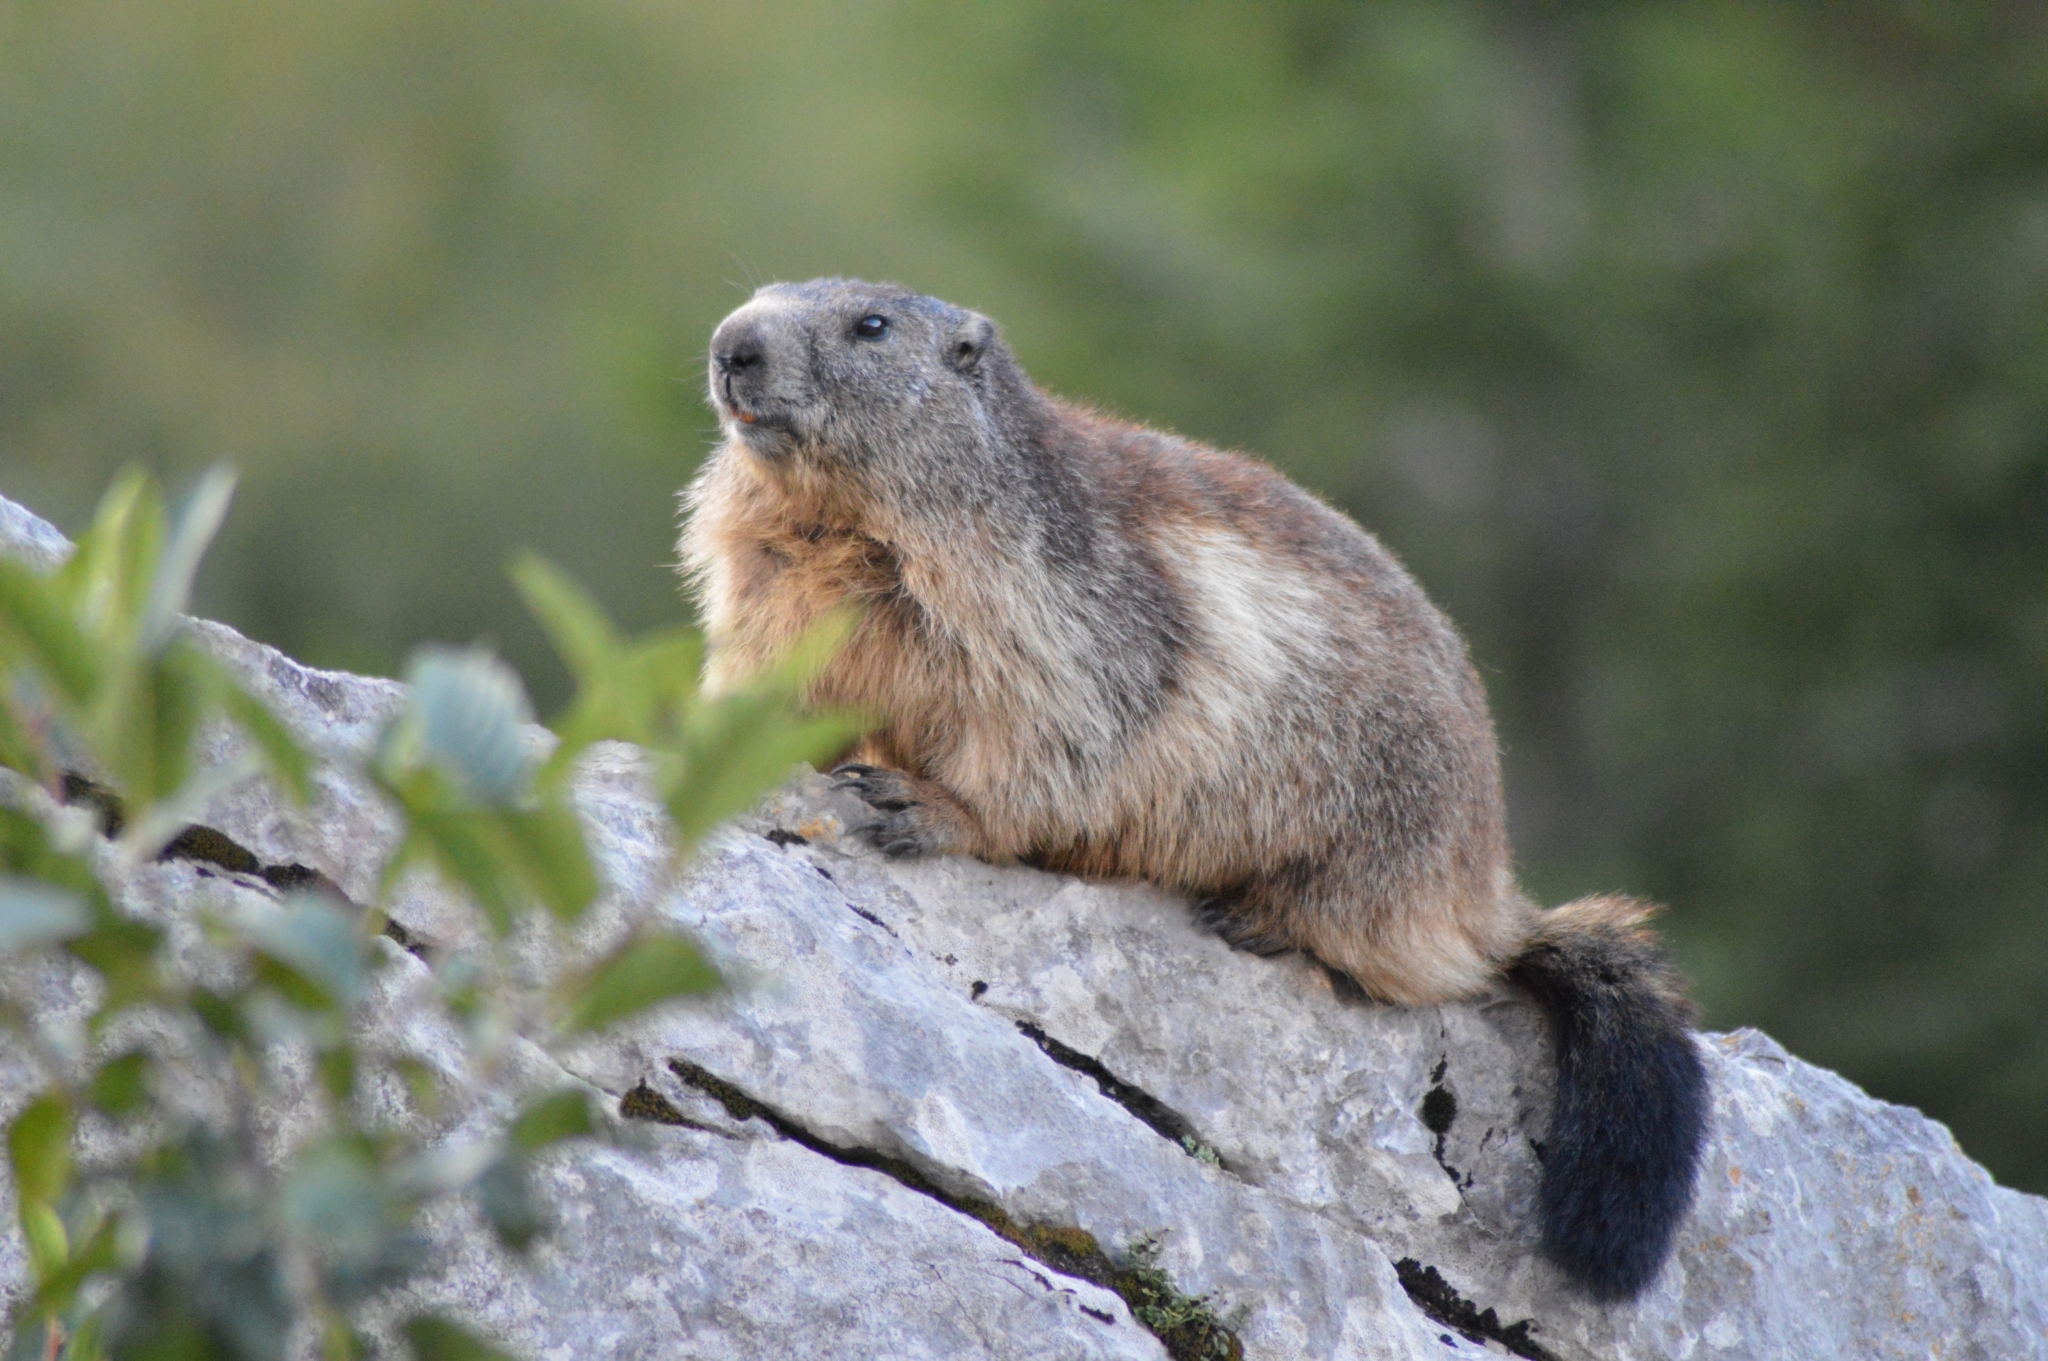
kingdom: Animalia
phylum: Chordata
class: Mammalia
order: Rodentia
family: Sciuridae
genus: Marmota
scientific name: Marmota marmota
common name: Alpine marmot
